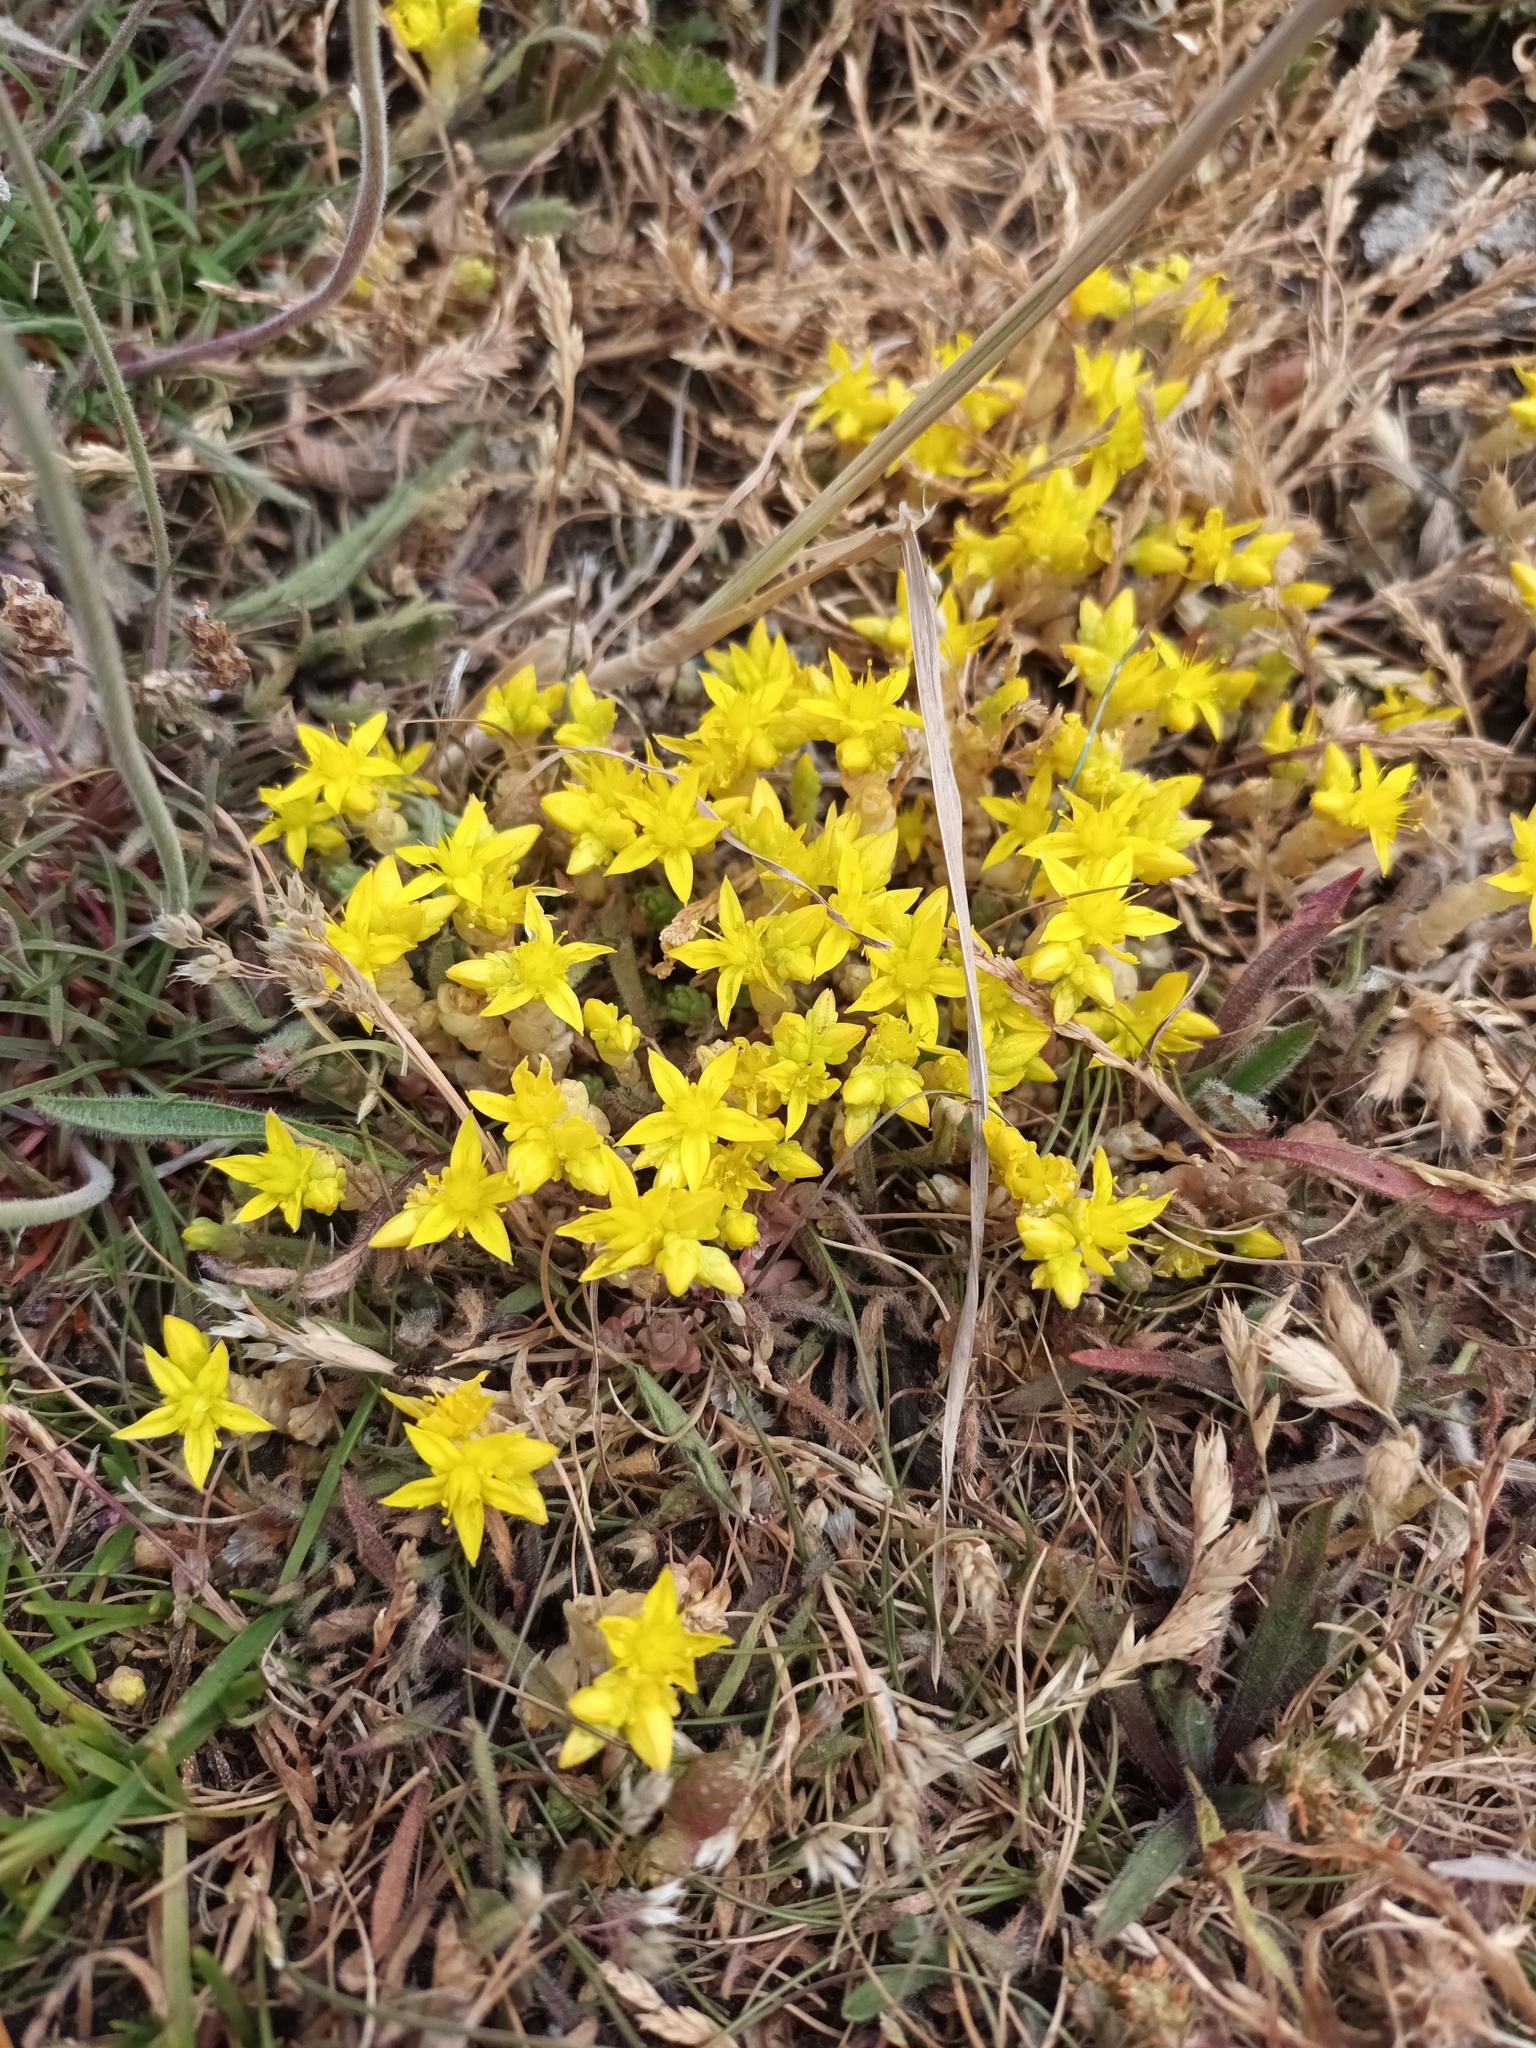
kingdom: Plantae
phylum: Tracheophyta
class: Magnoliopsida
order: Saxifragales
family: Crassulaceae
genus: Sedum
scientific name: Sedum acre
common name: Biting stonecrop
